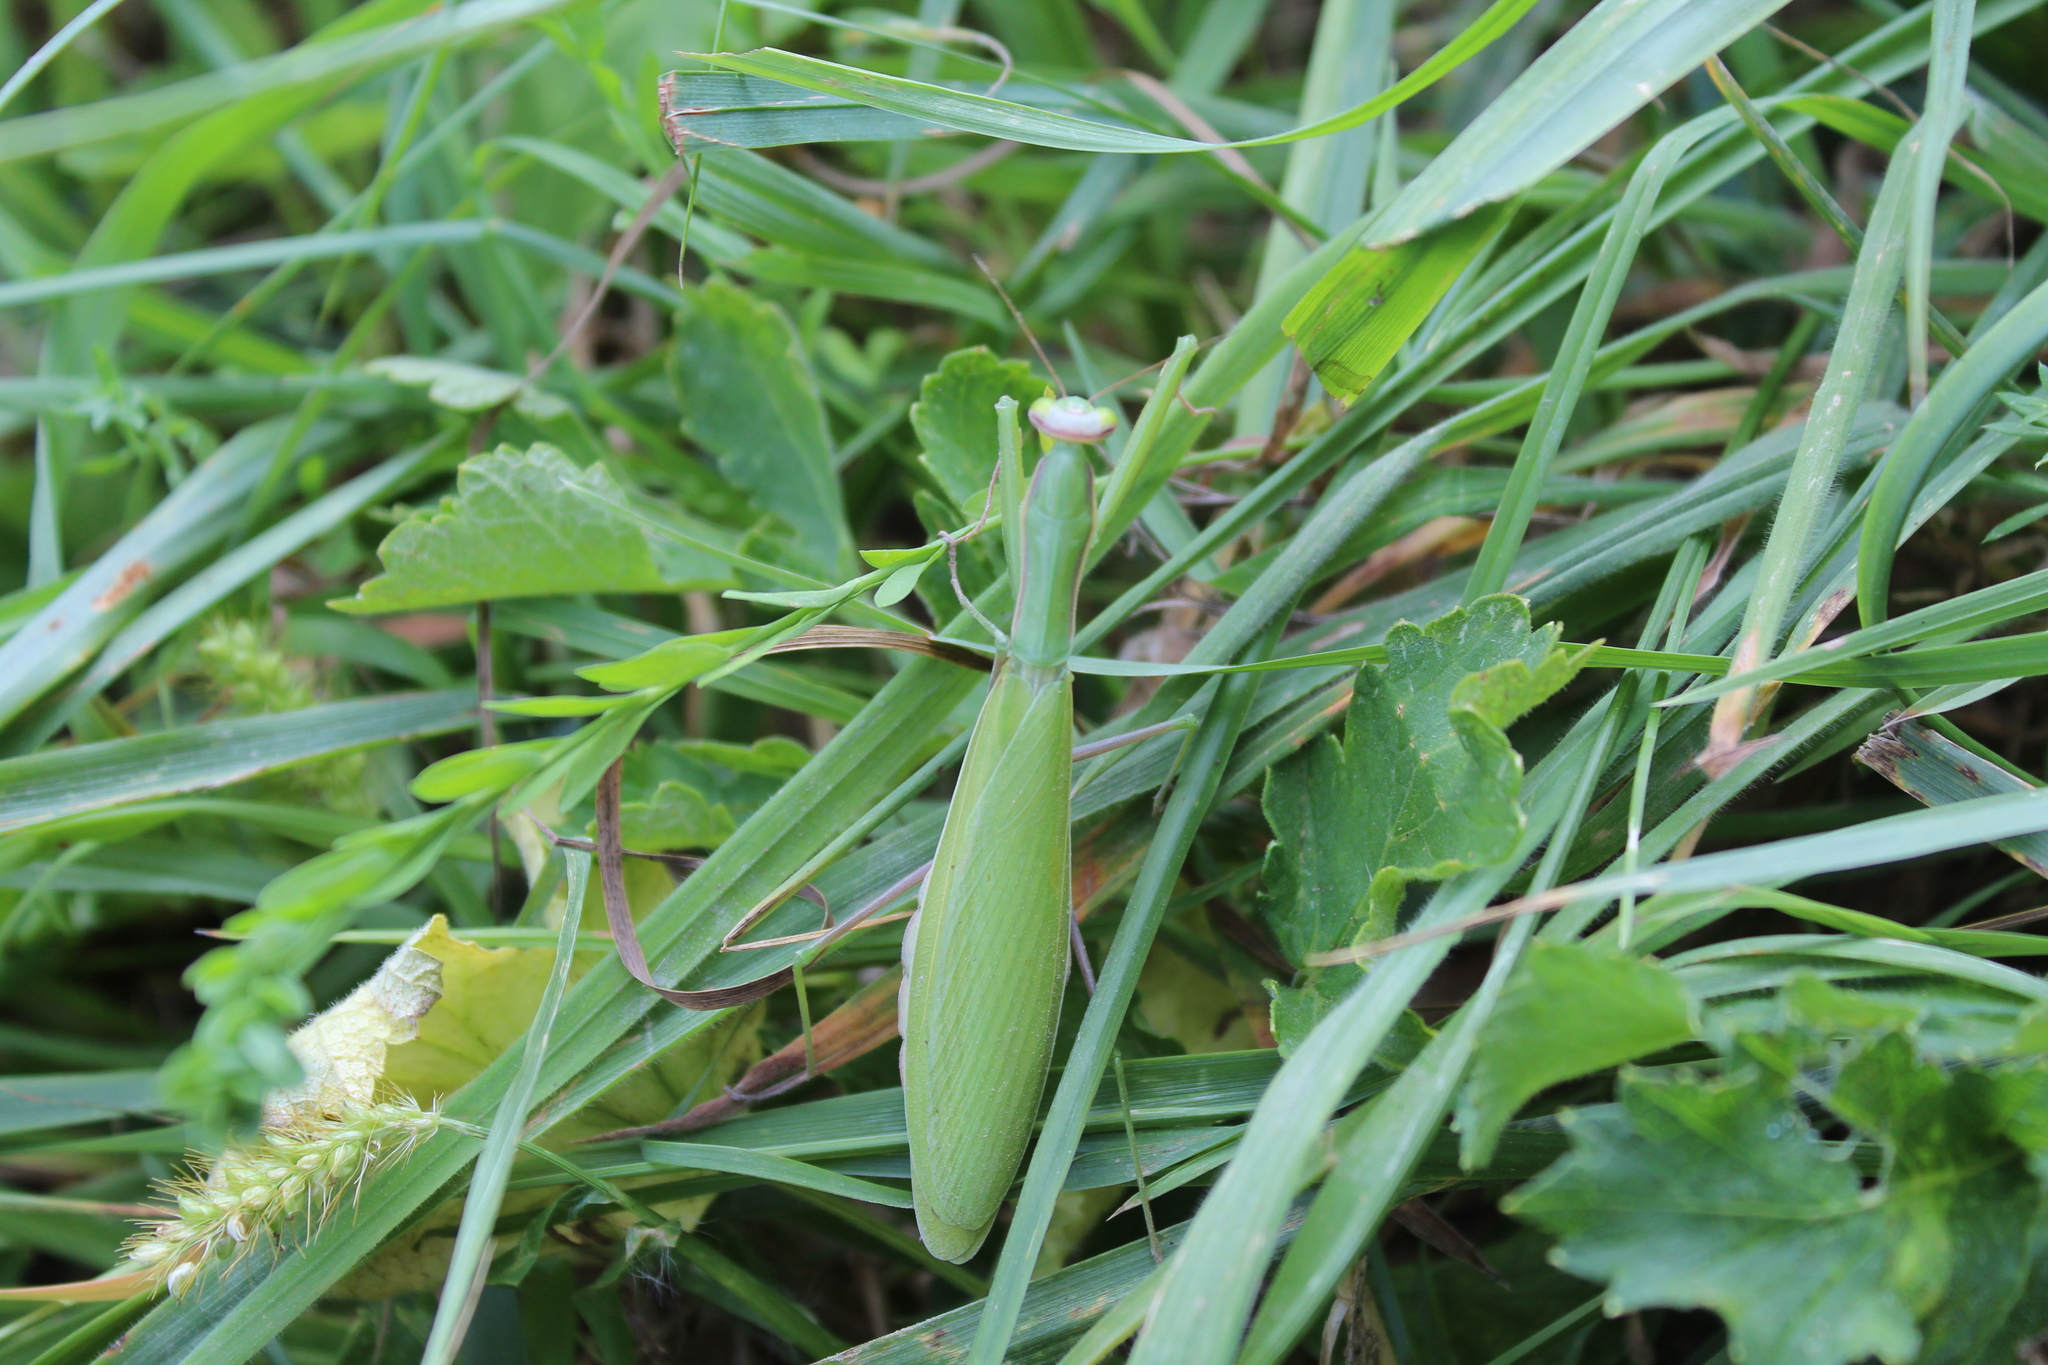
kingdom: Animalia
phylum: Arthropoda
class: Insecta
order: Mantodea
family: Mantidae
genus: Mantis
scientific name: Mantis religiosa
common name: Praying mantis
